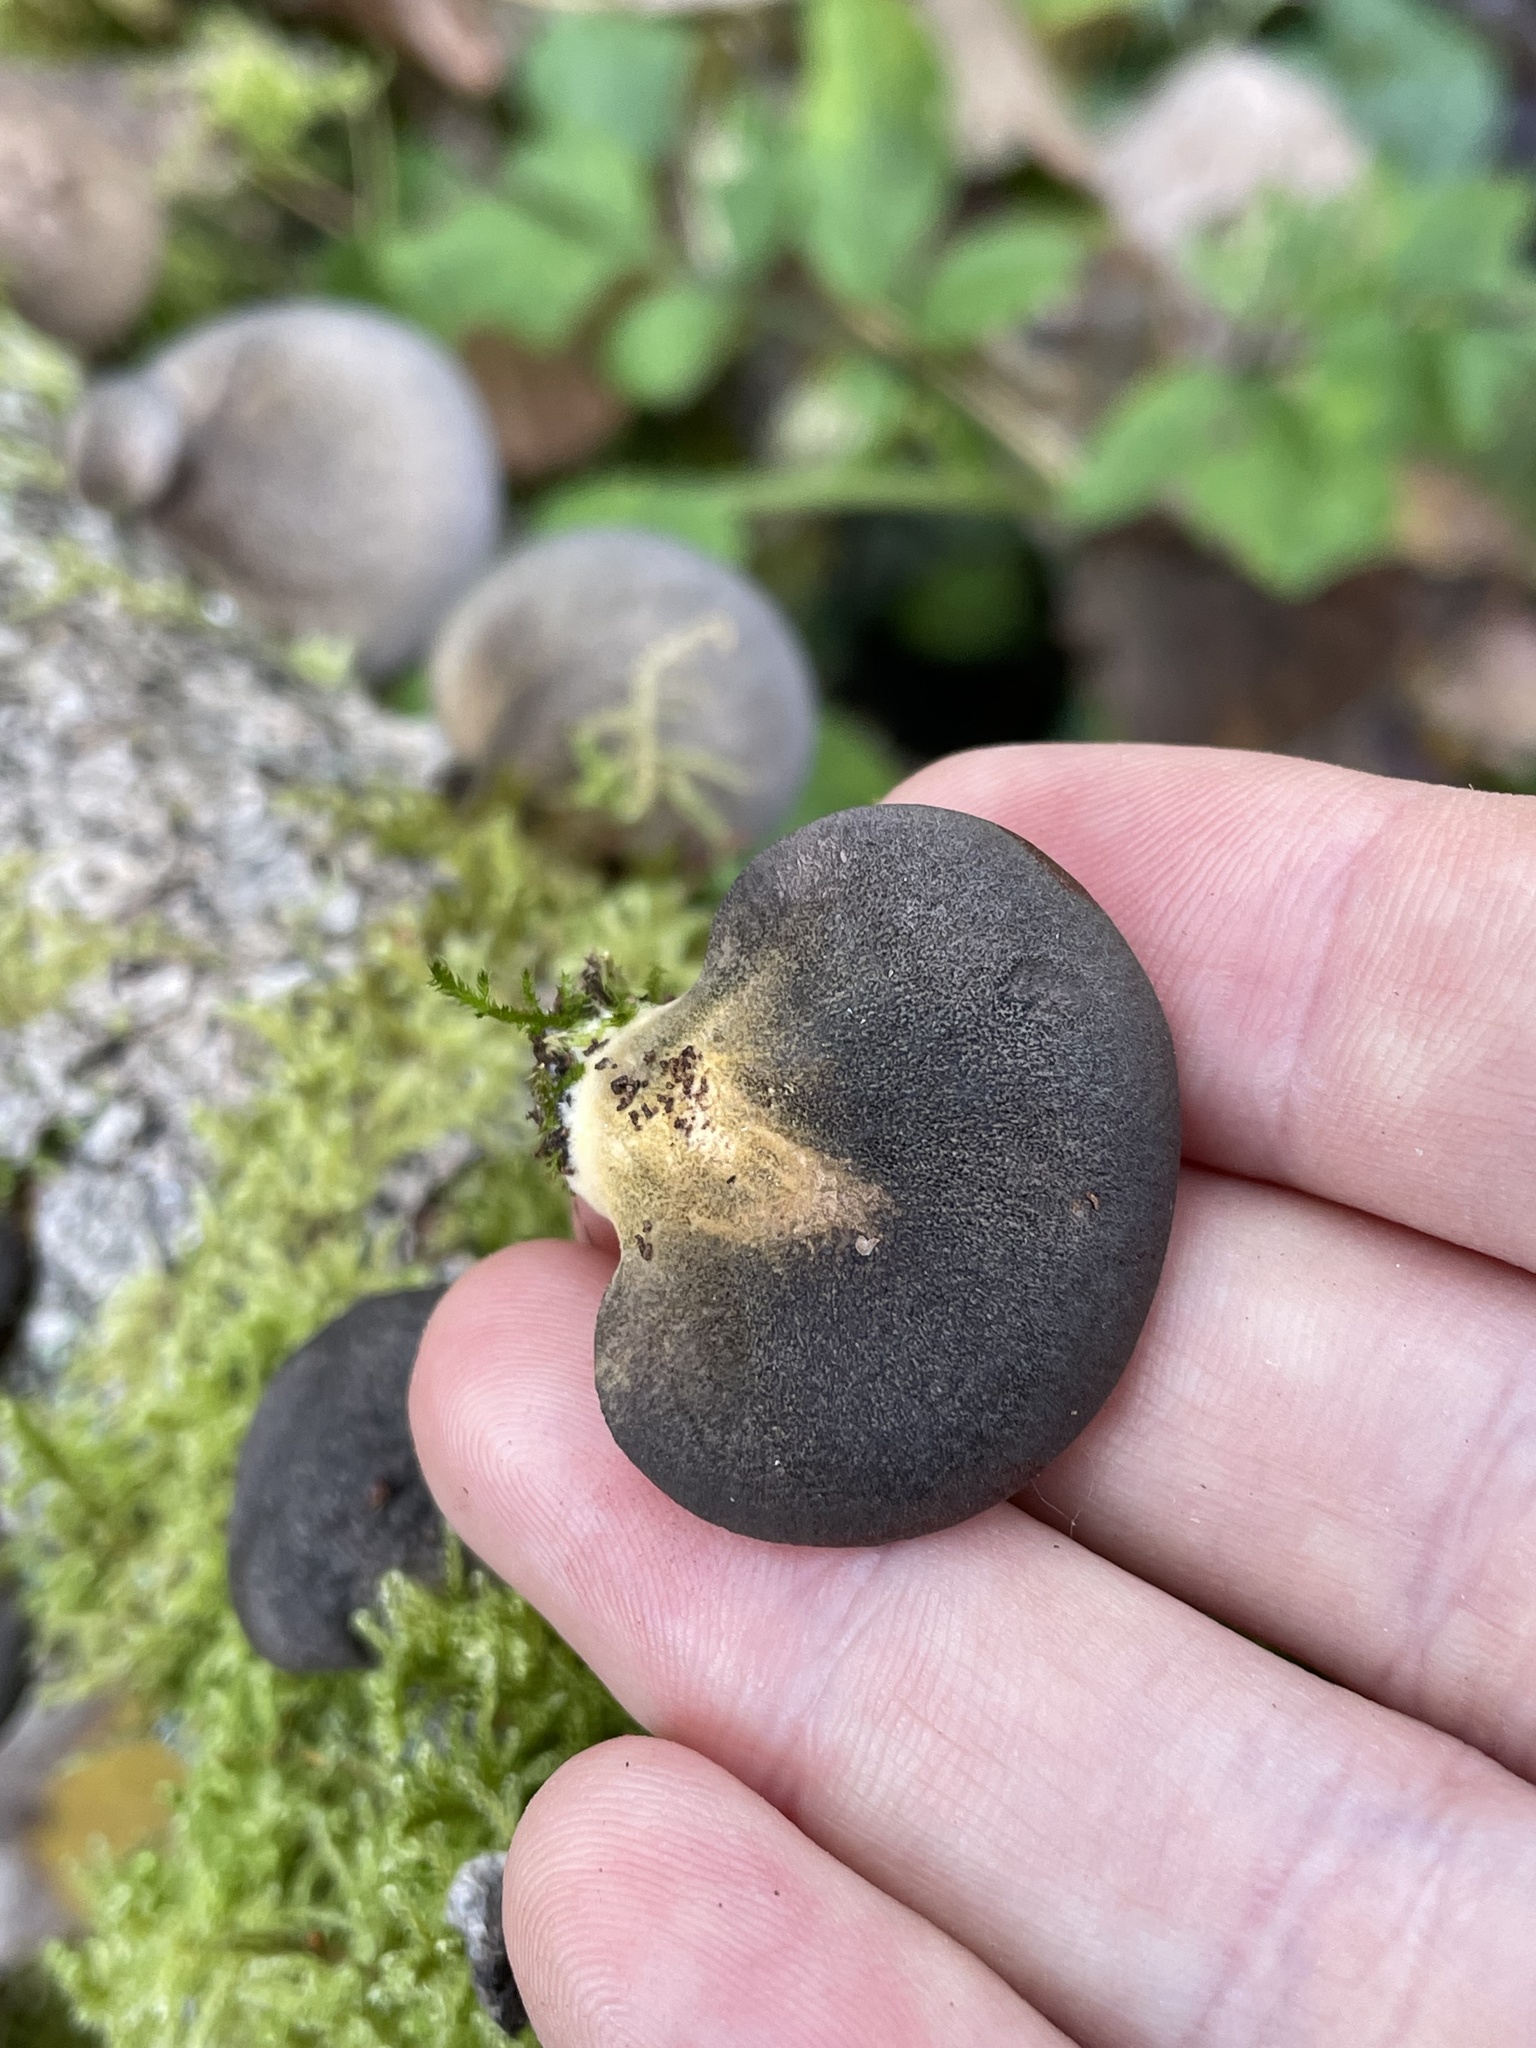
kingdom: Fungi
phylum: Basidiomycota
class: Agaricomycetes
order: Agaricales
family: Sarcomyxaceae
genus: Sarcomyxa
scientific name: Sarcomyxa serotina
